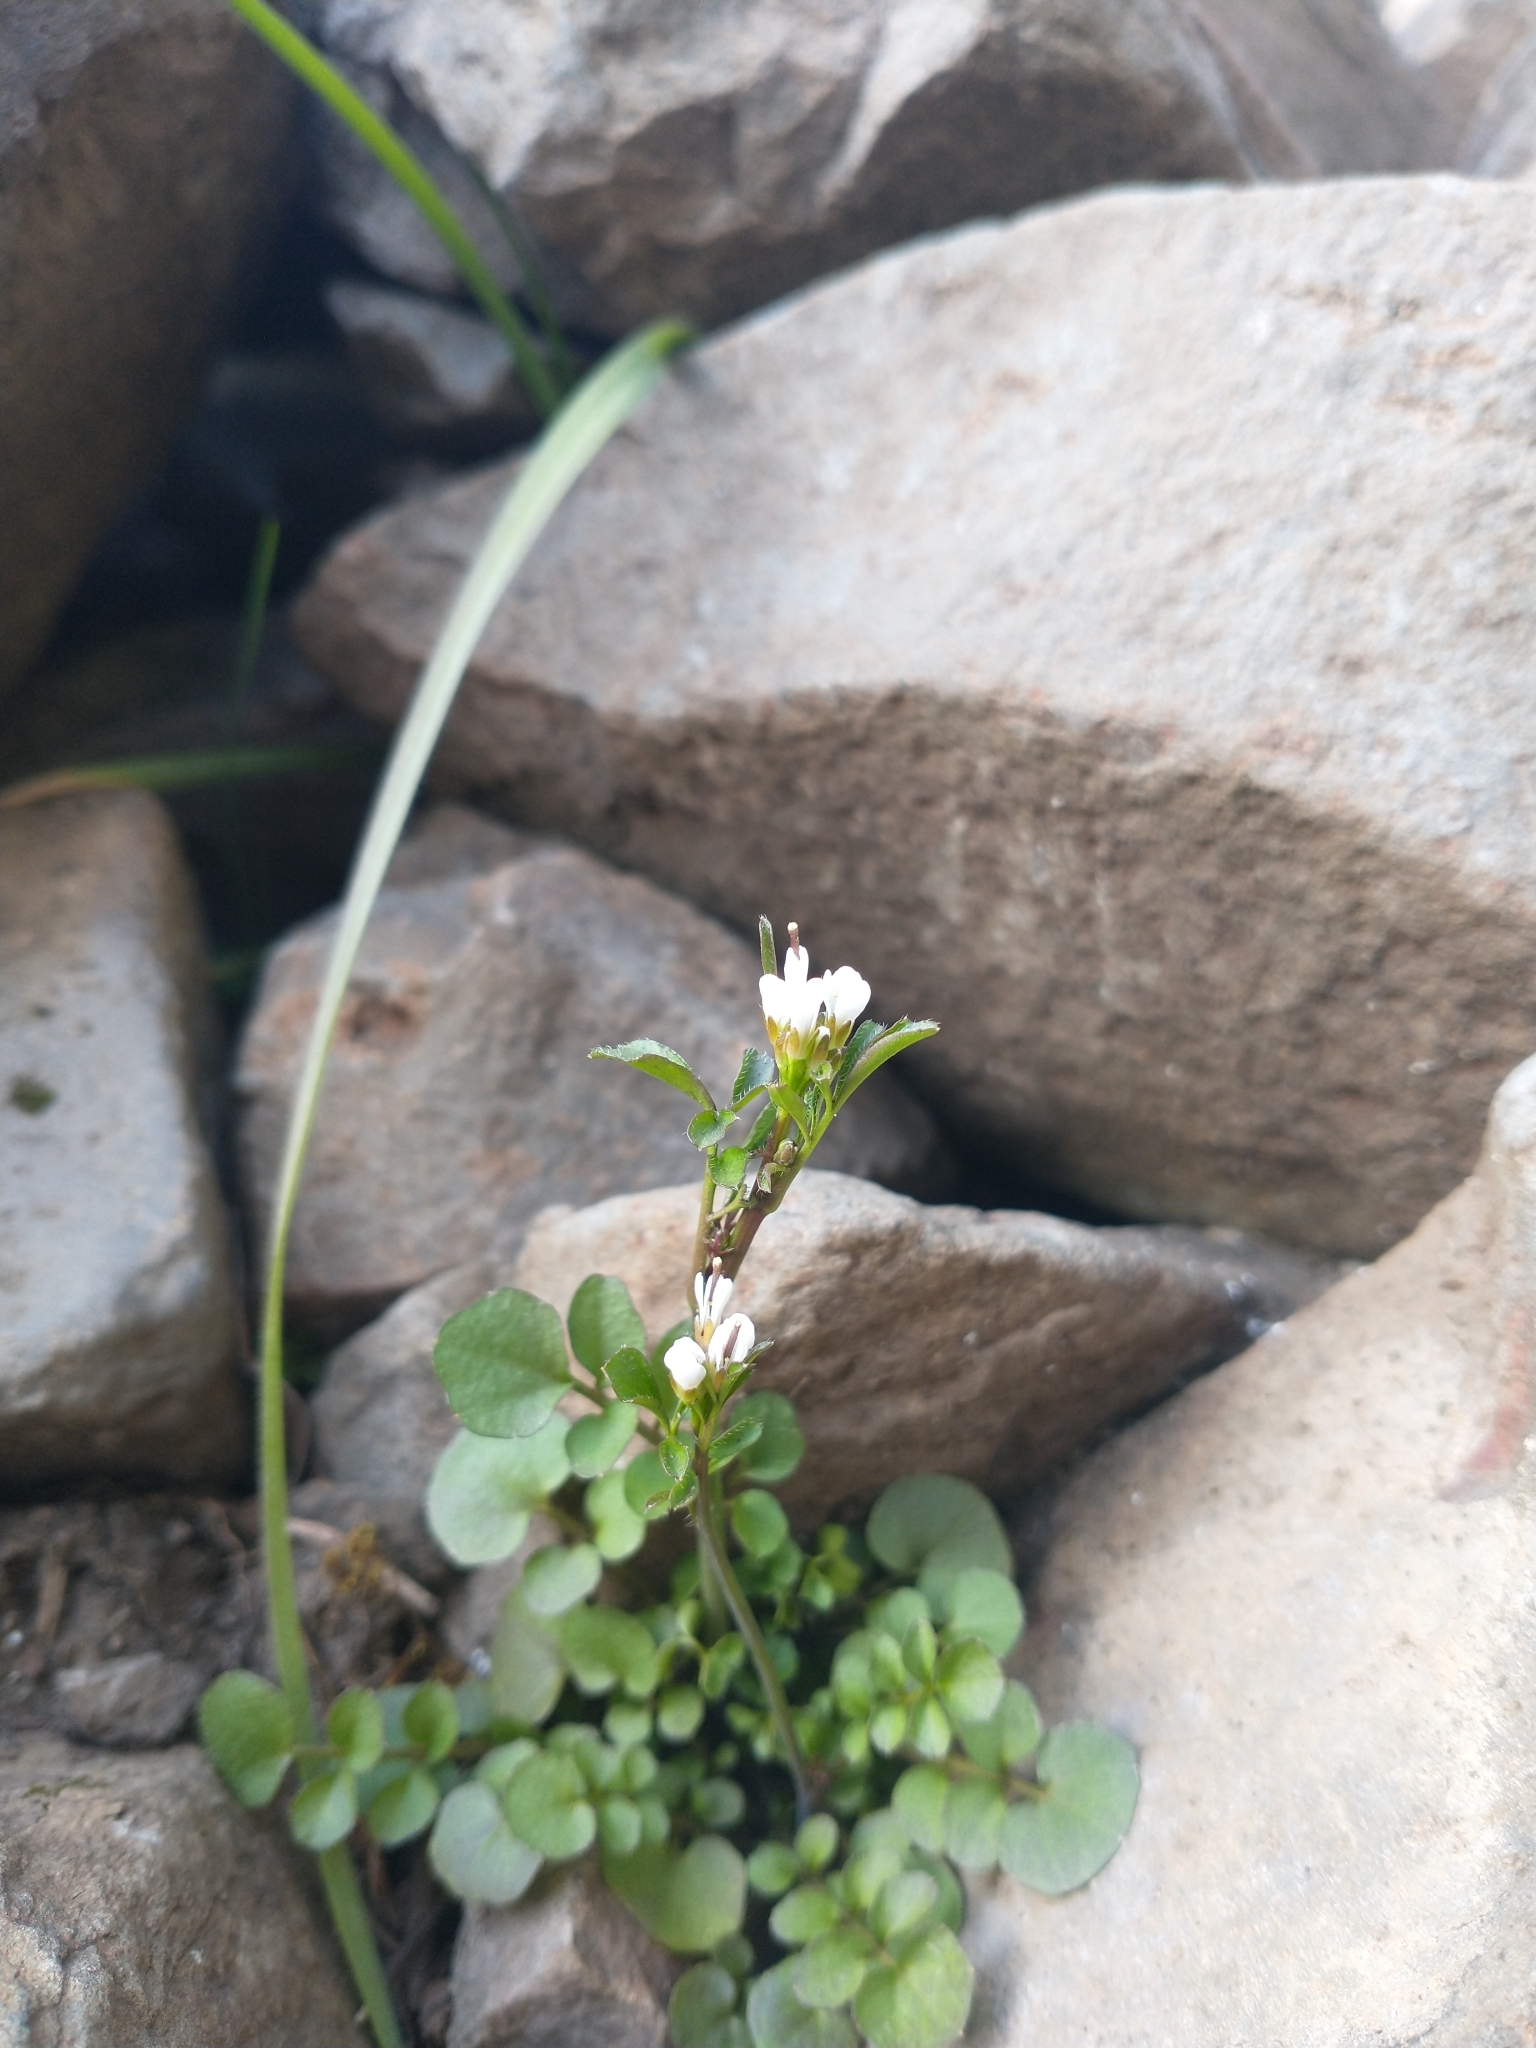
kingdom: Plantae
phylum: Tracheophyta
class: Magnoliopsida
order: Brassicales
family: Brassicaceae
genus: Cardamine
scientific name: Cardamine hirsuta
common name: Hairy bittercress
